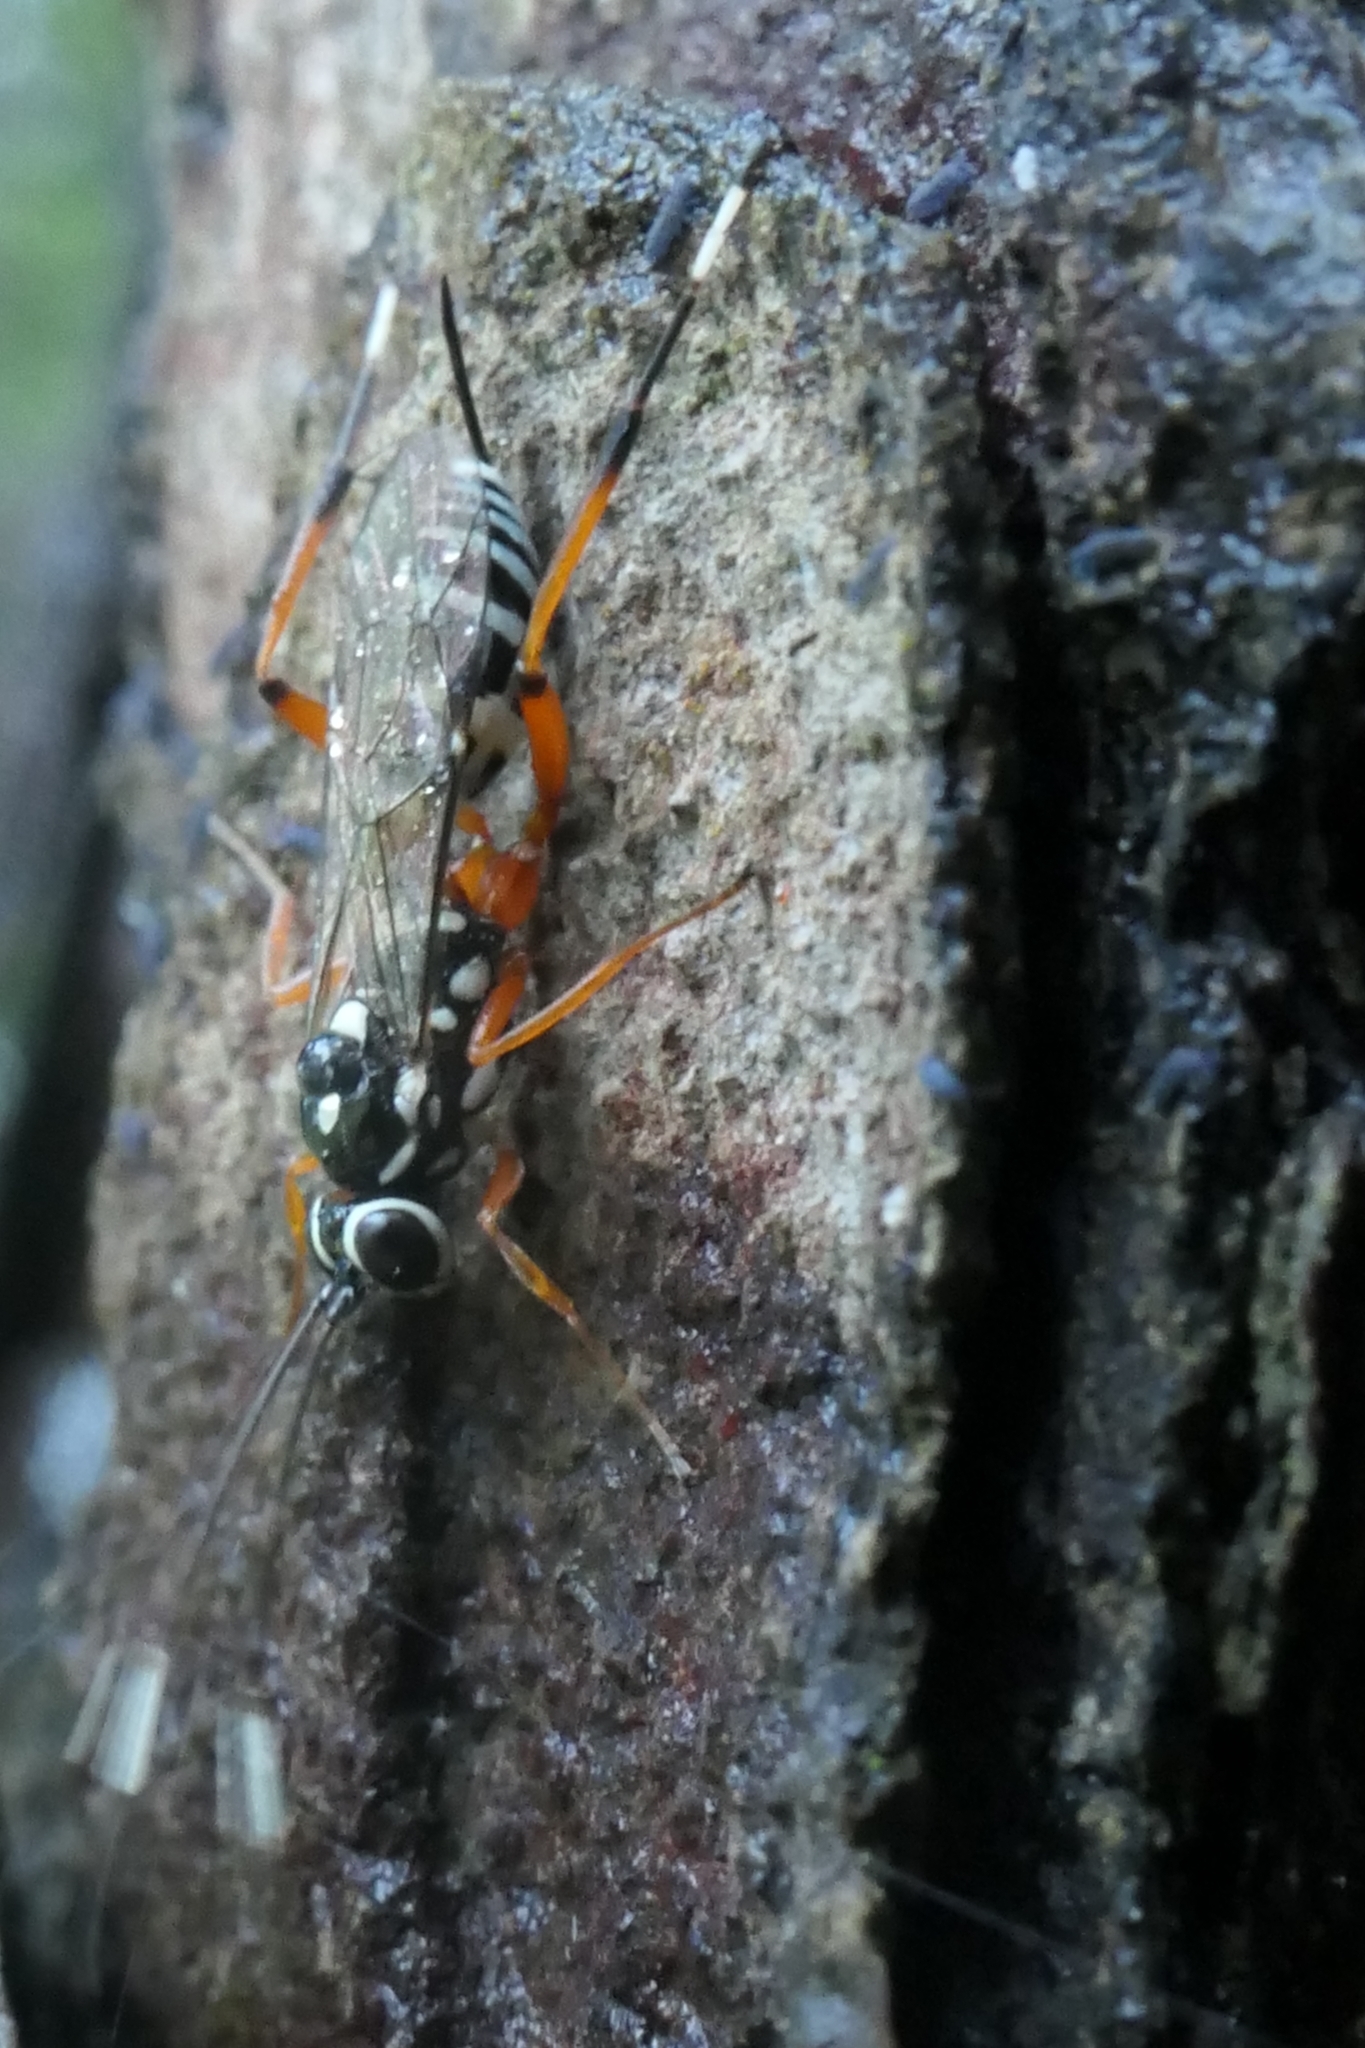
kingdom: Animalia
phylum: Arthropoda
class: Insecta
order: Hymenoptera
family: Ichneumonidae
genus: Glabridorsum
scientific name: Glabridorsum stokesii
